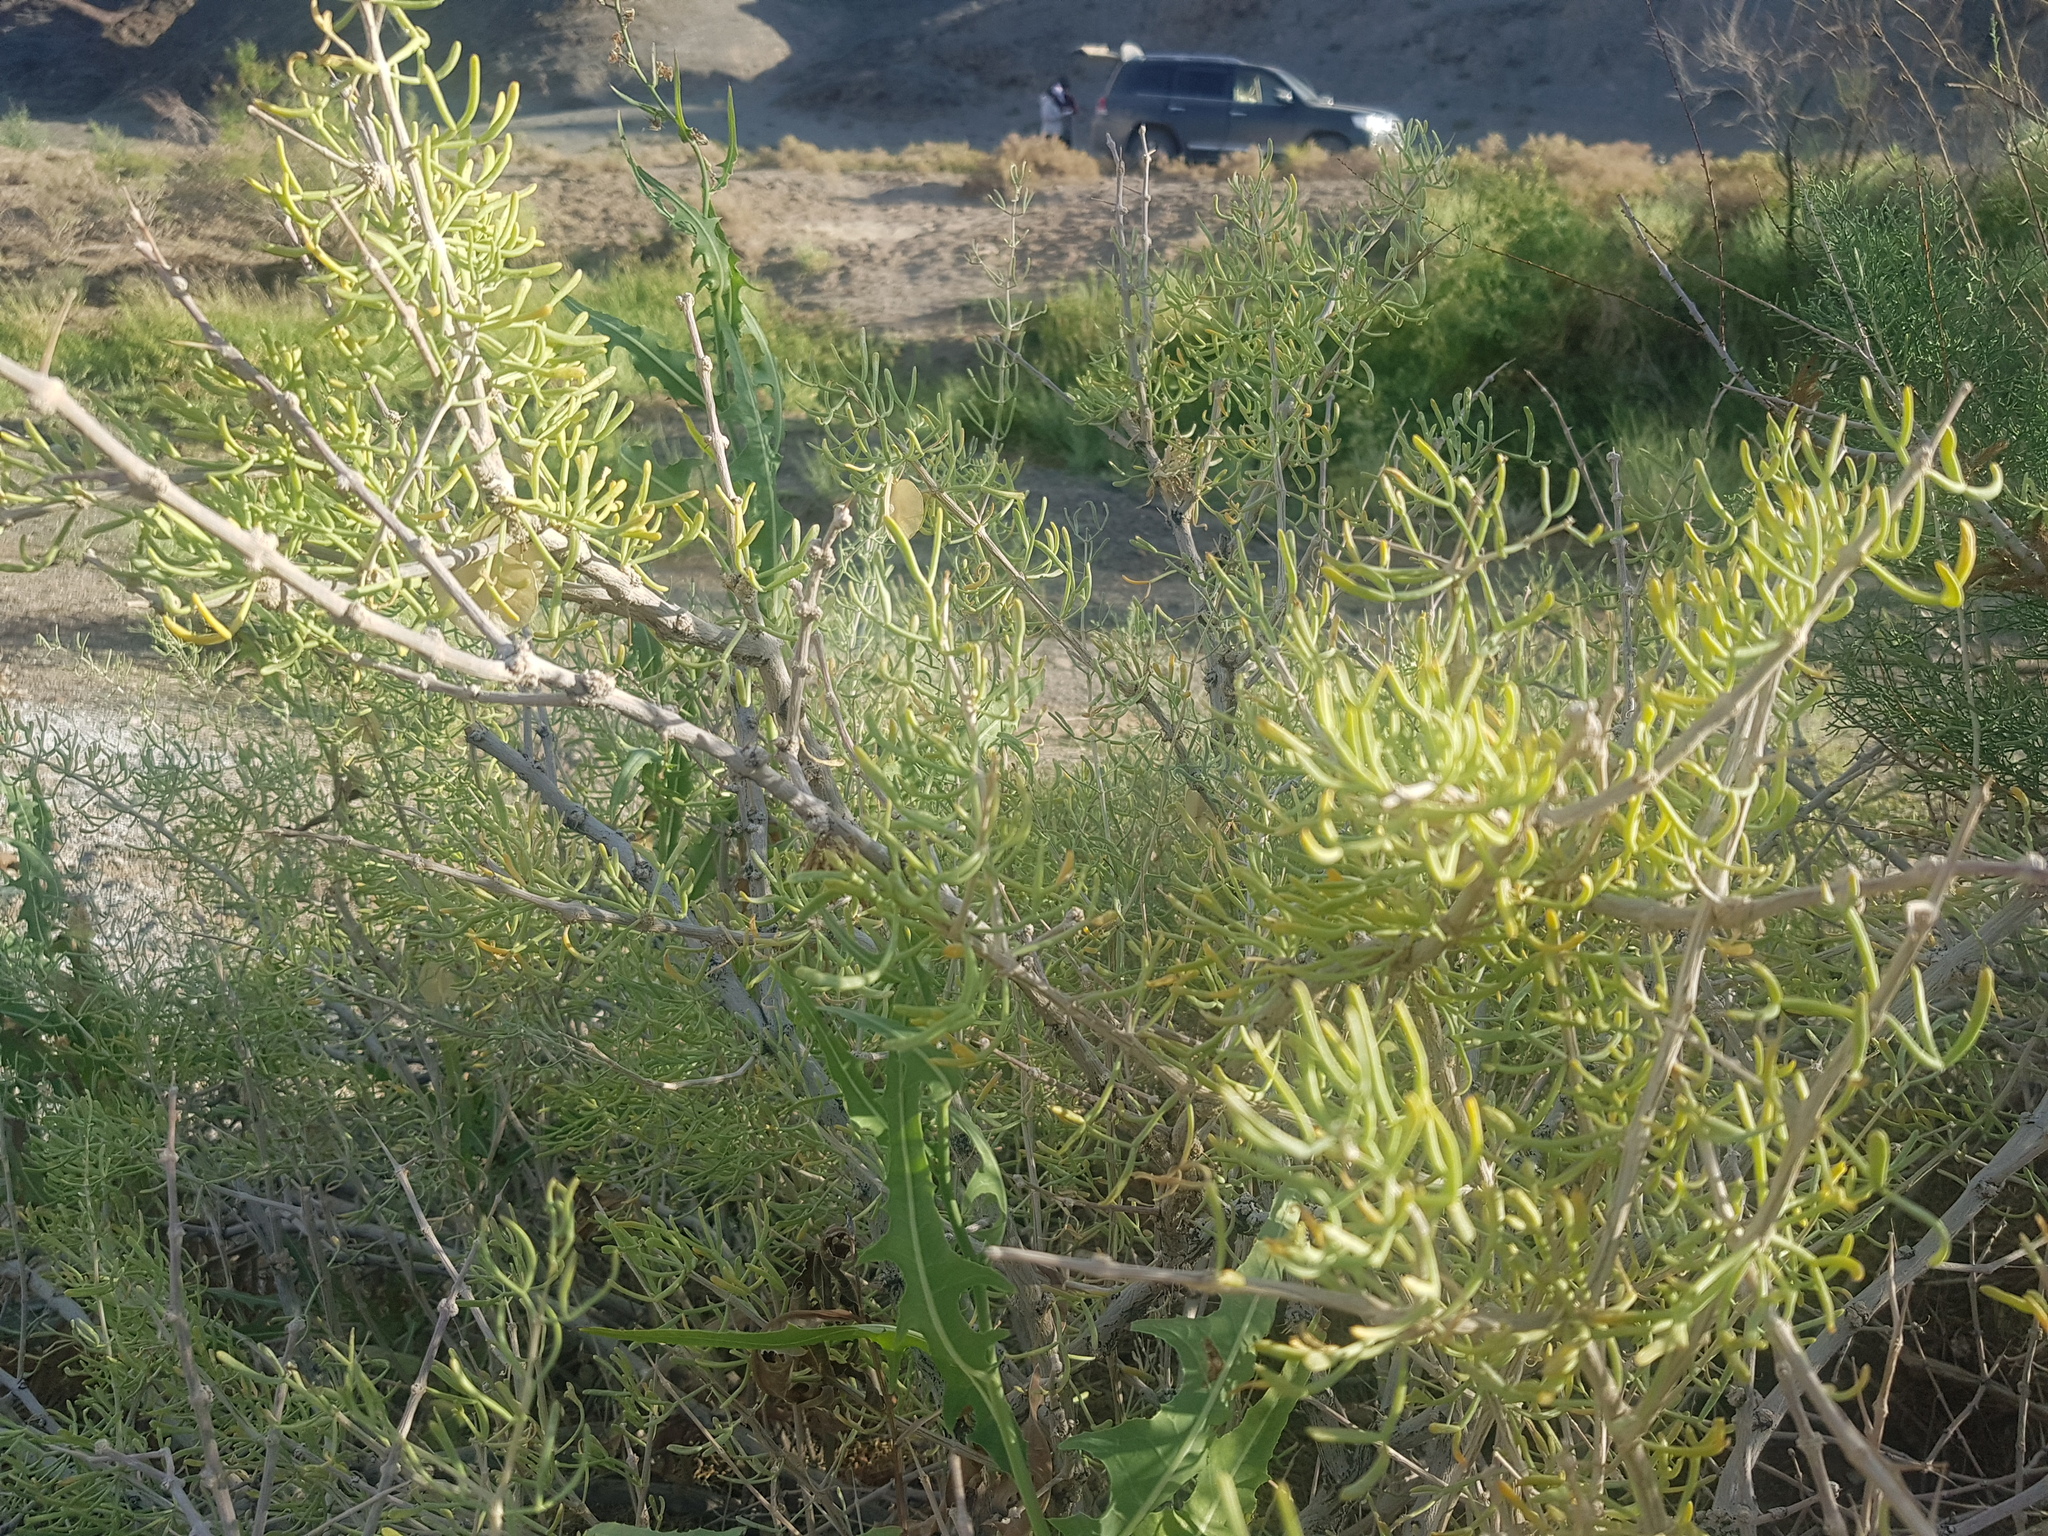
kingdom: Plantae
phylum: Tracheophyta
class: Magnoliopsida
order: Zygophyllales
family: Zygophyllaceae
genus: Zygophyllum
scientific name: Zygophyllum xanthoxylum
